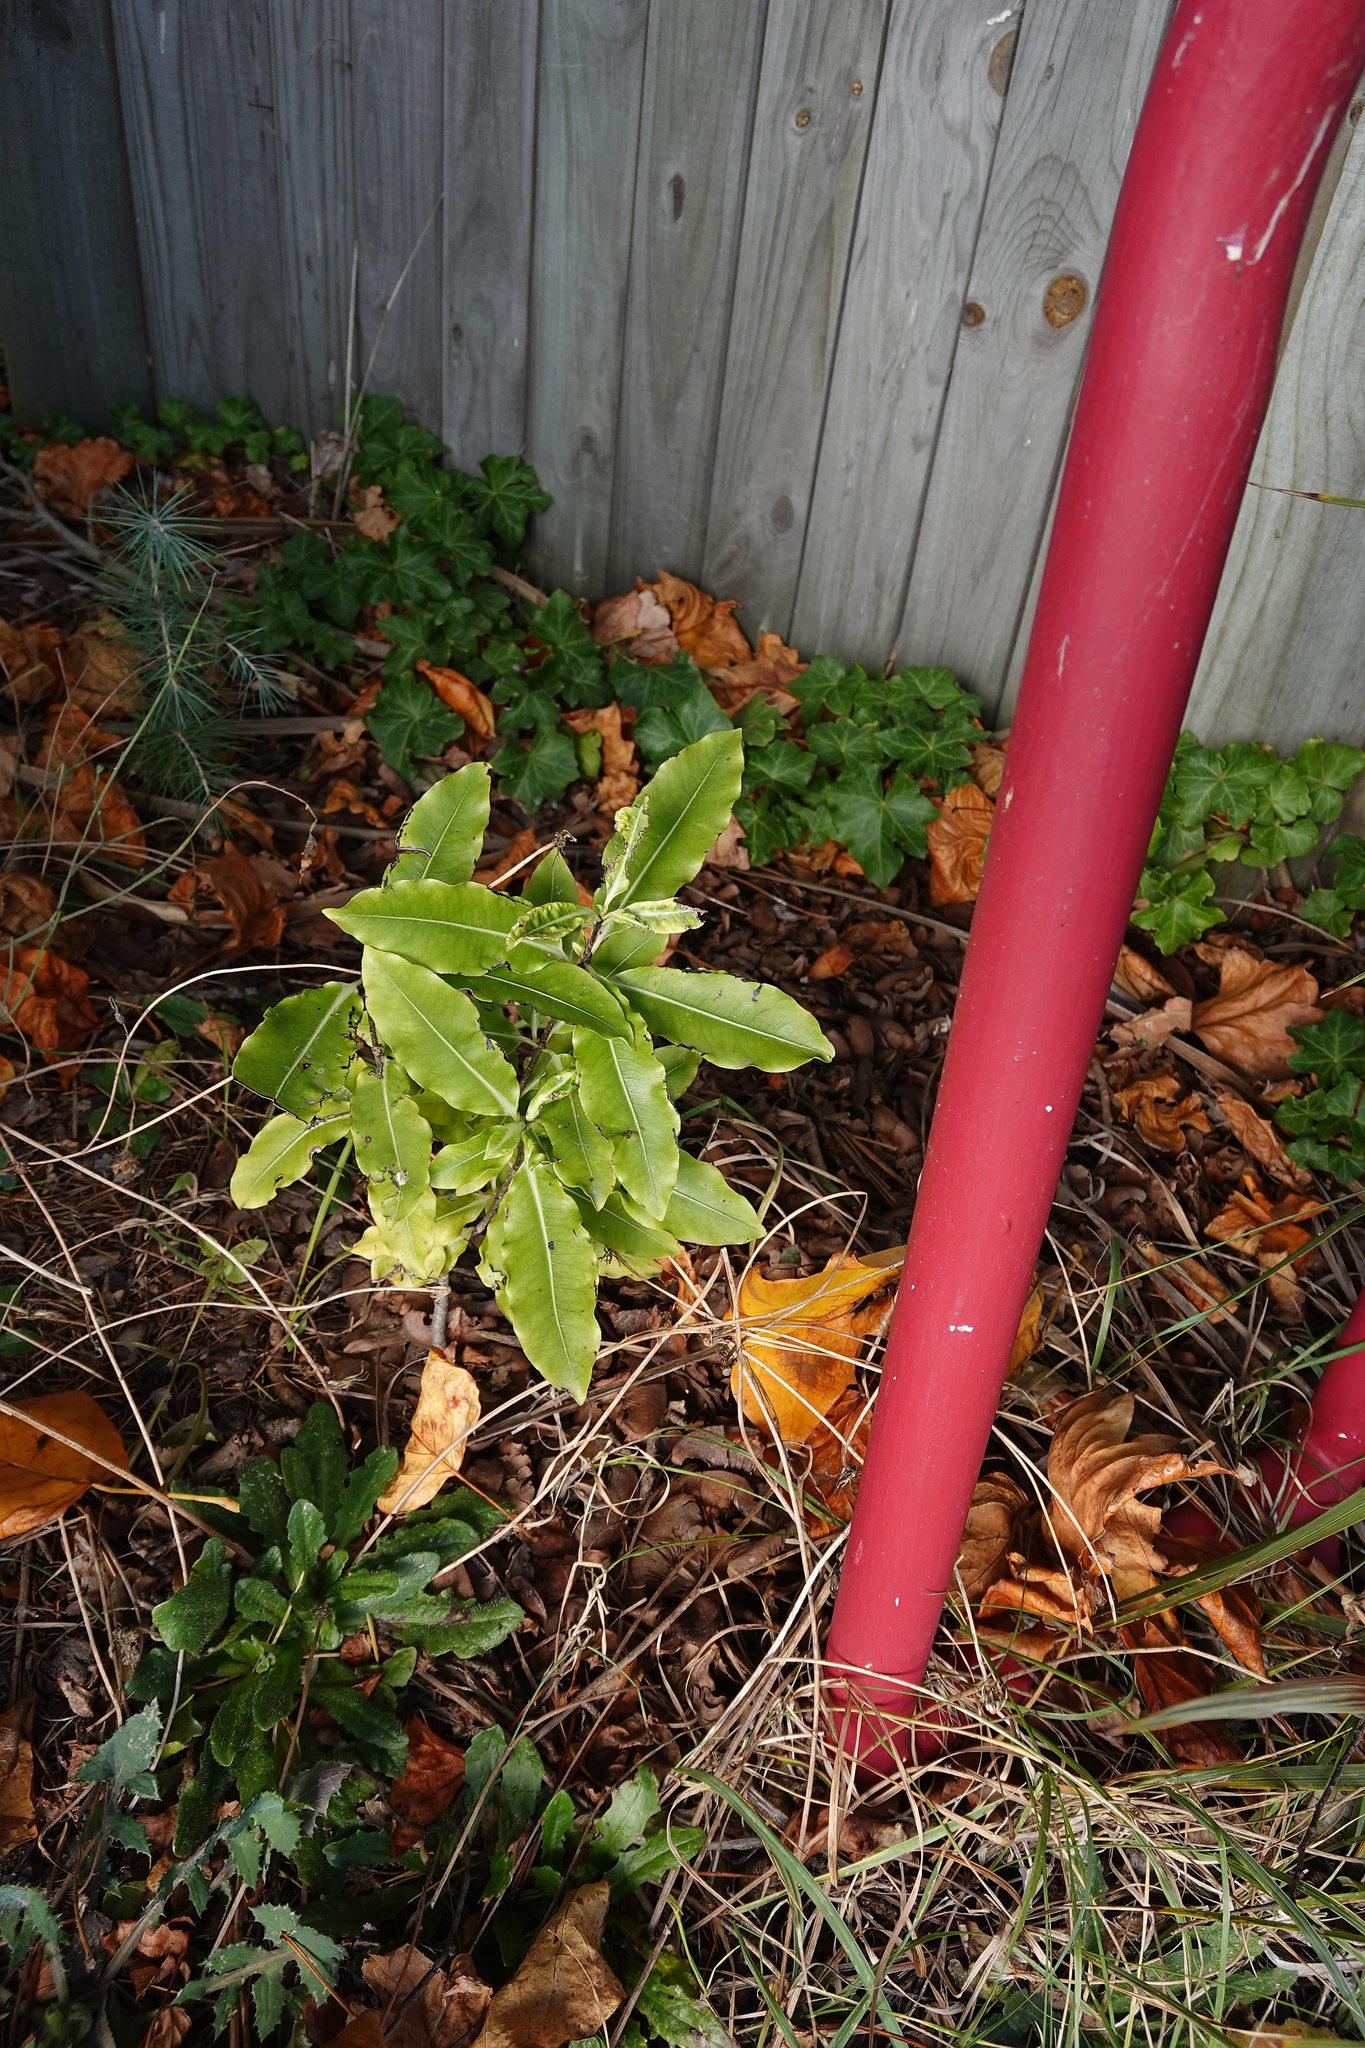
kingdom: Plantae
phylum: Tracheophyta
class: Magnoliopsida
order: Apiales
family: Pittosporaceae
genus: Pittosporum
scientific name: Pittosporum eugenioides
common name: Lemonwood
